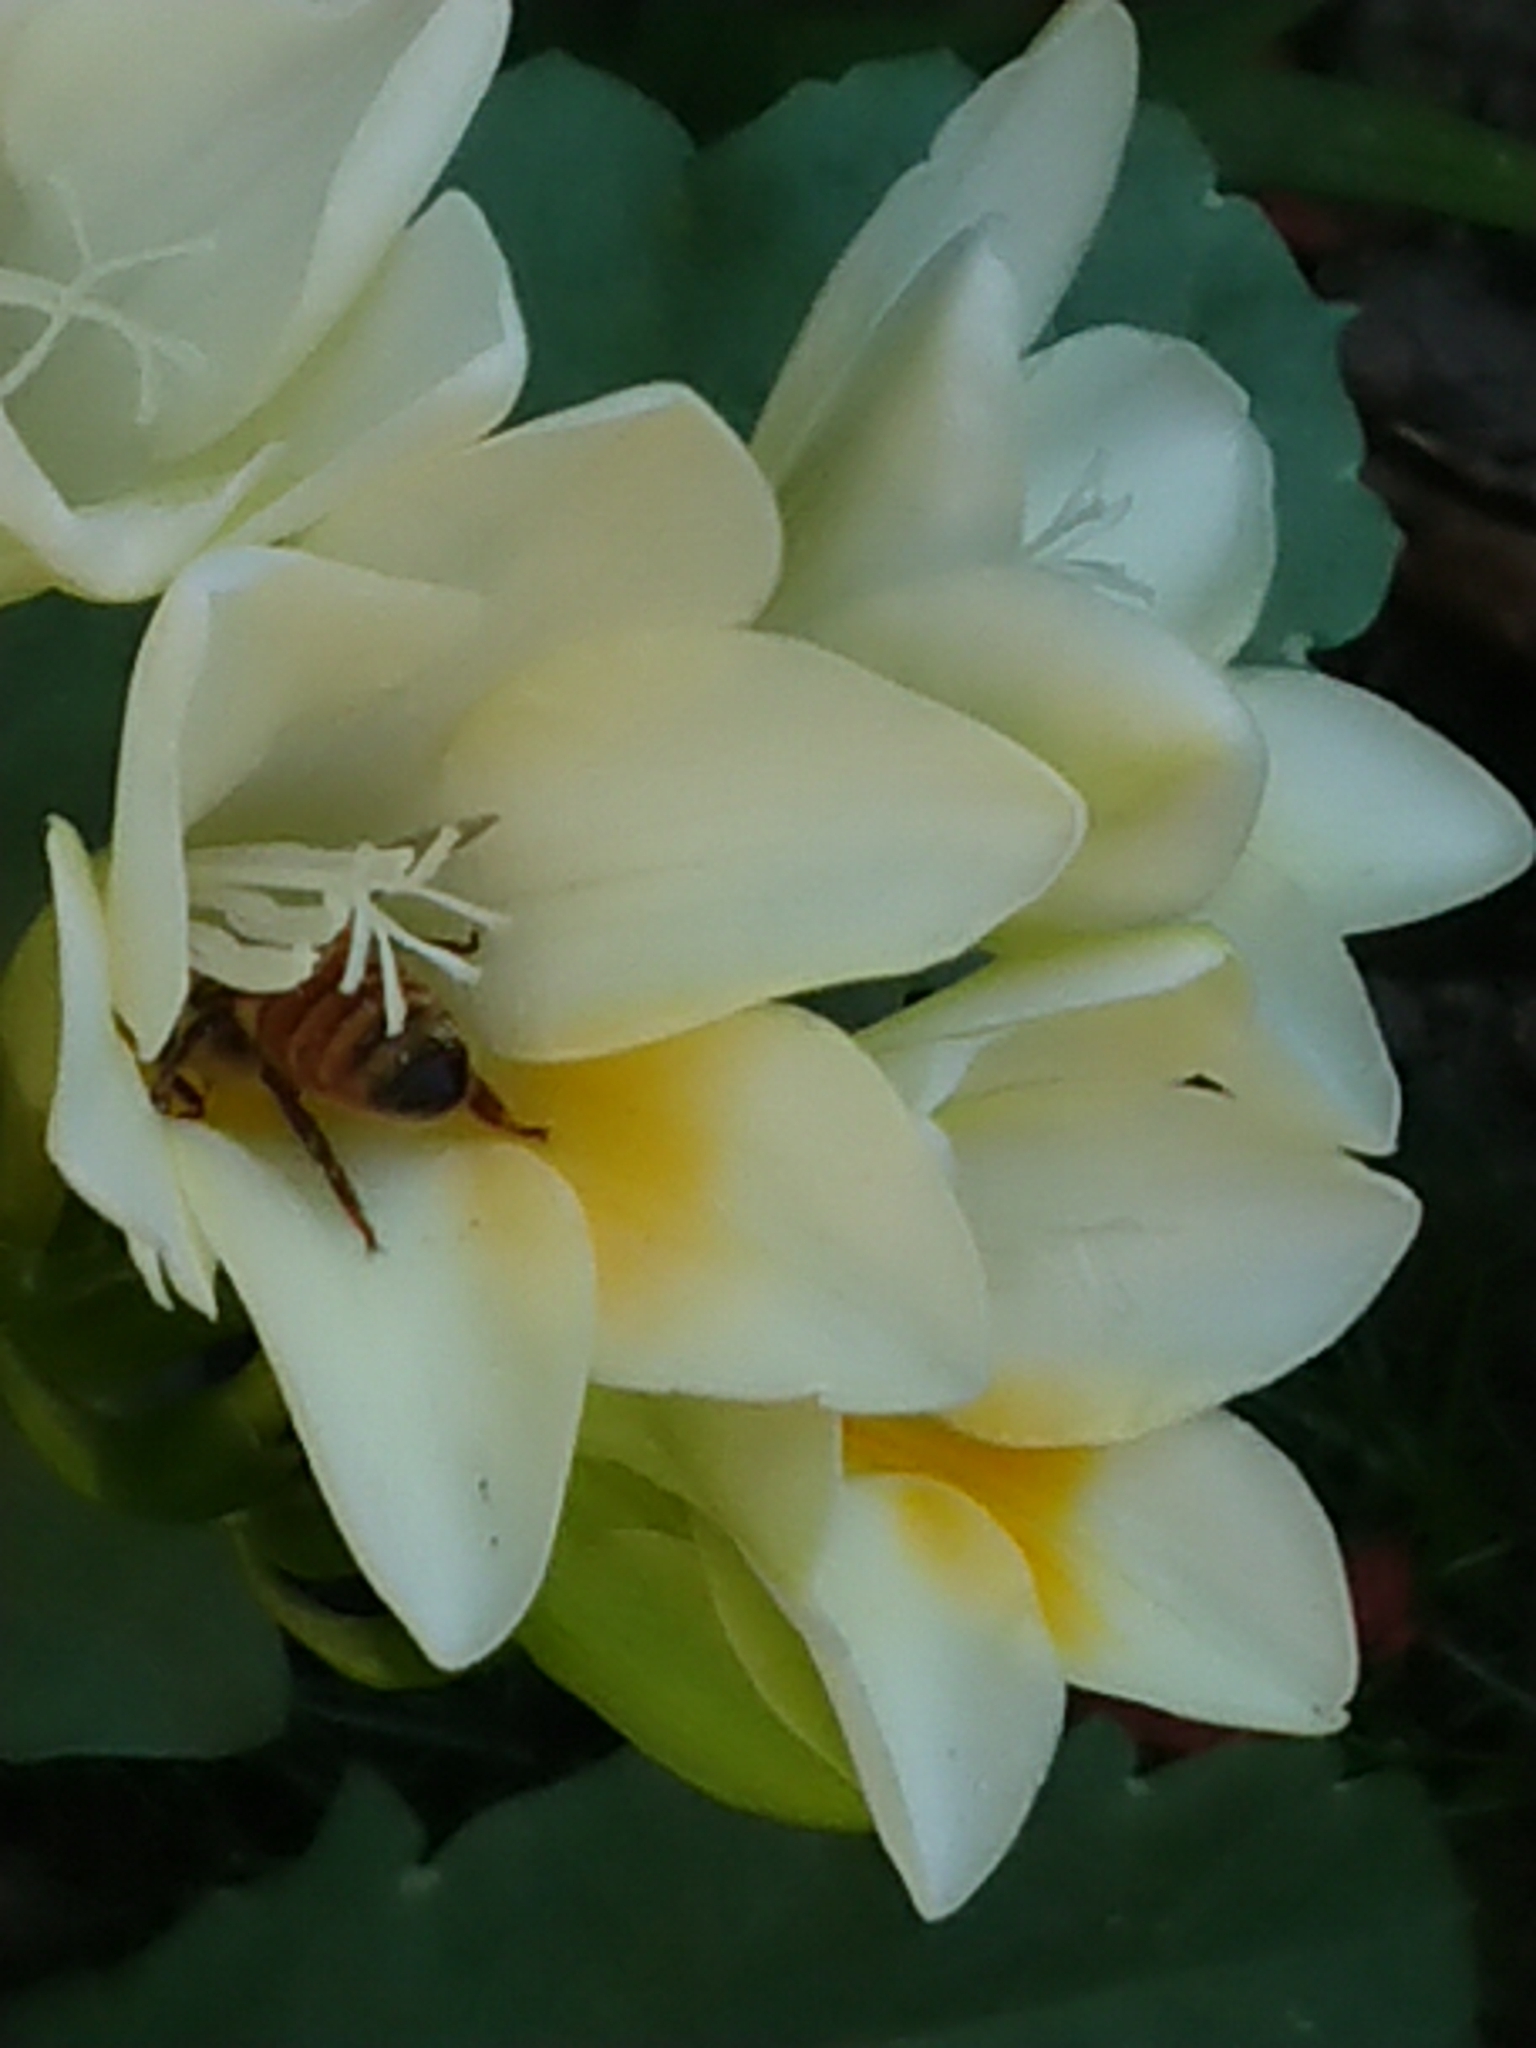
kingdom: Animalia
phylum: Arthropoda
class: Insecta
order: Hymenoptera
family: Apidae
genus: Apis
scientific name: Apis mellifera
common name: Honey bee
